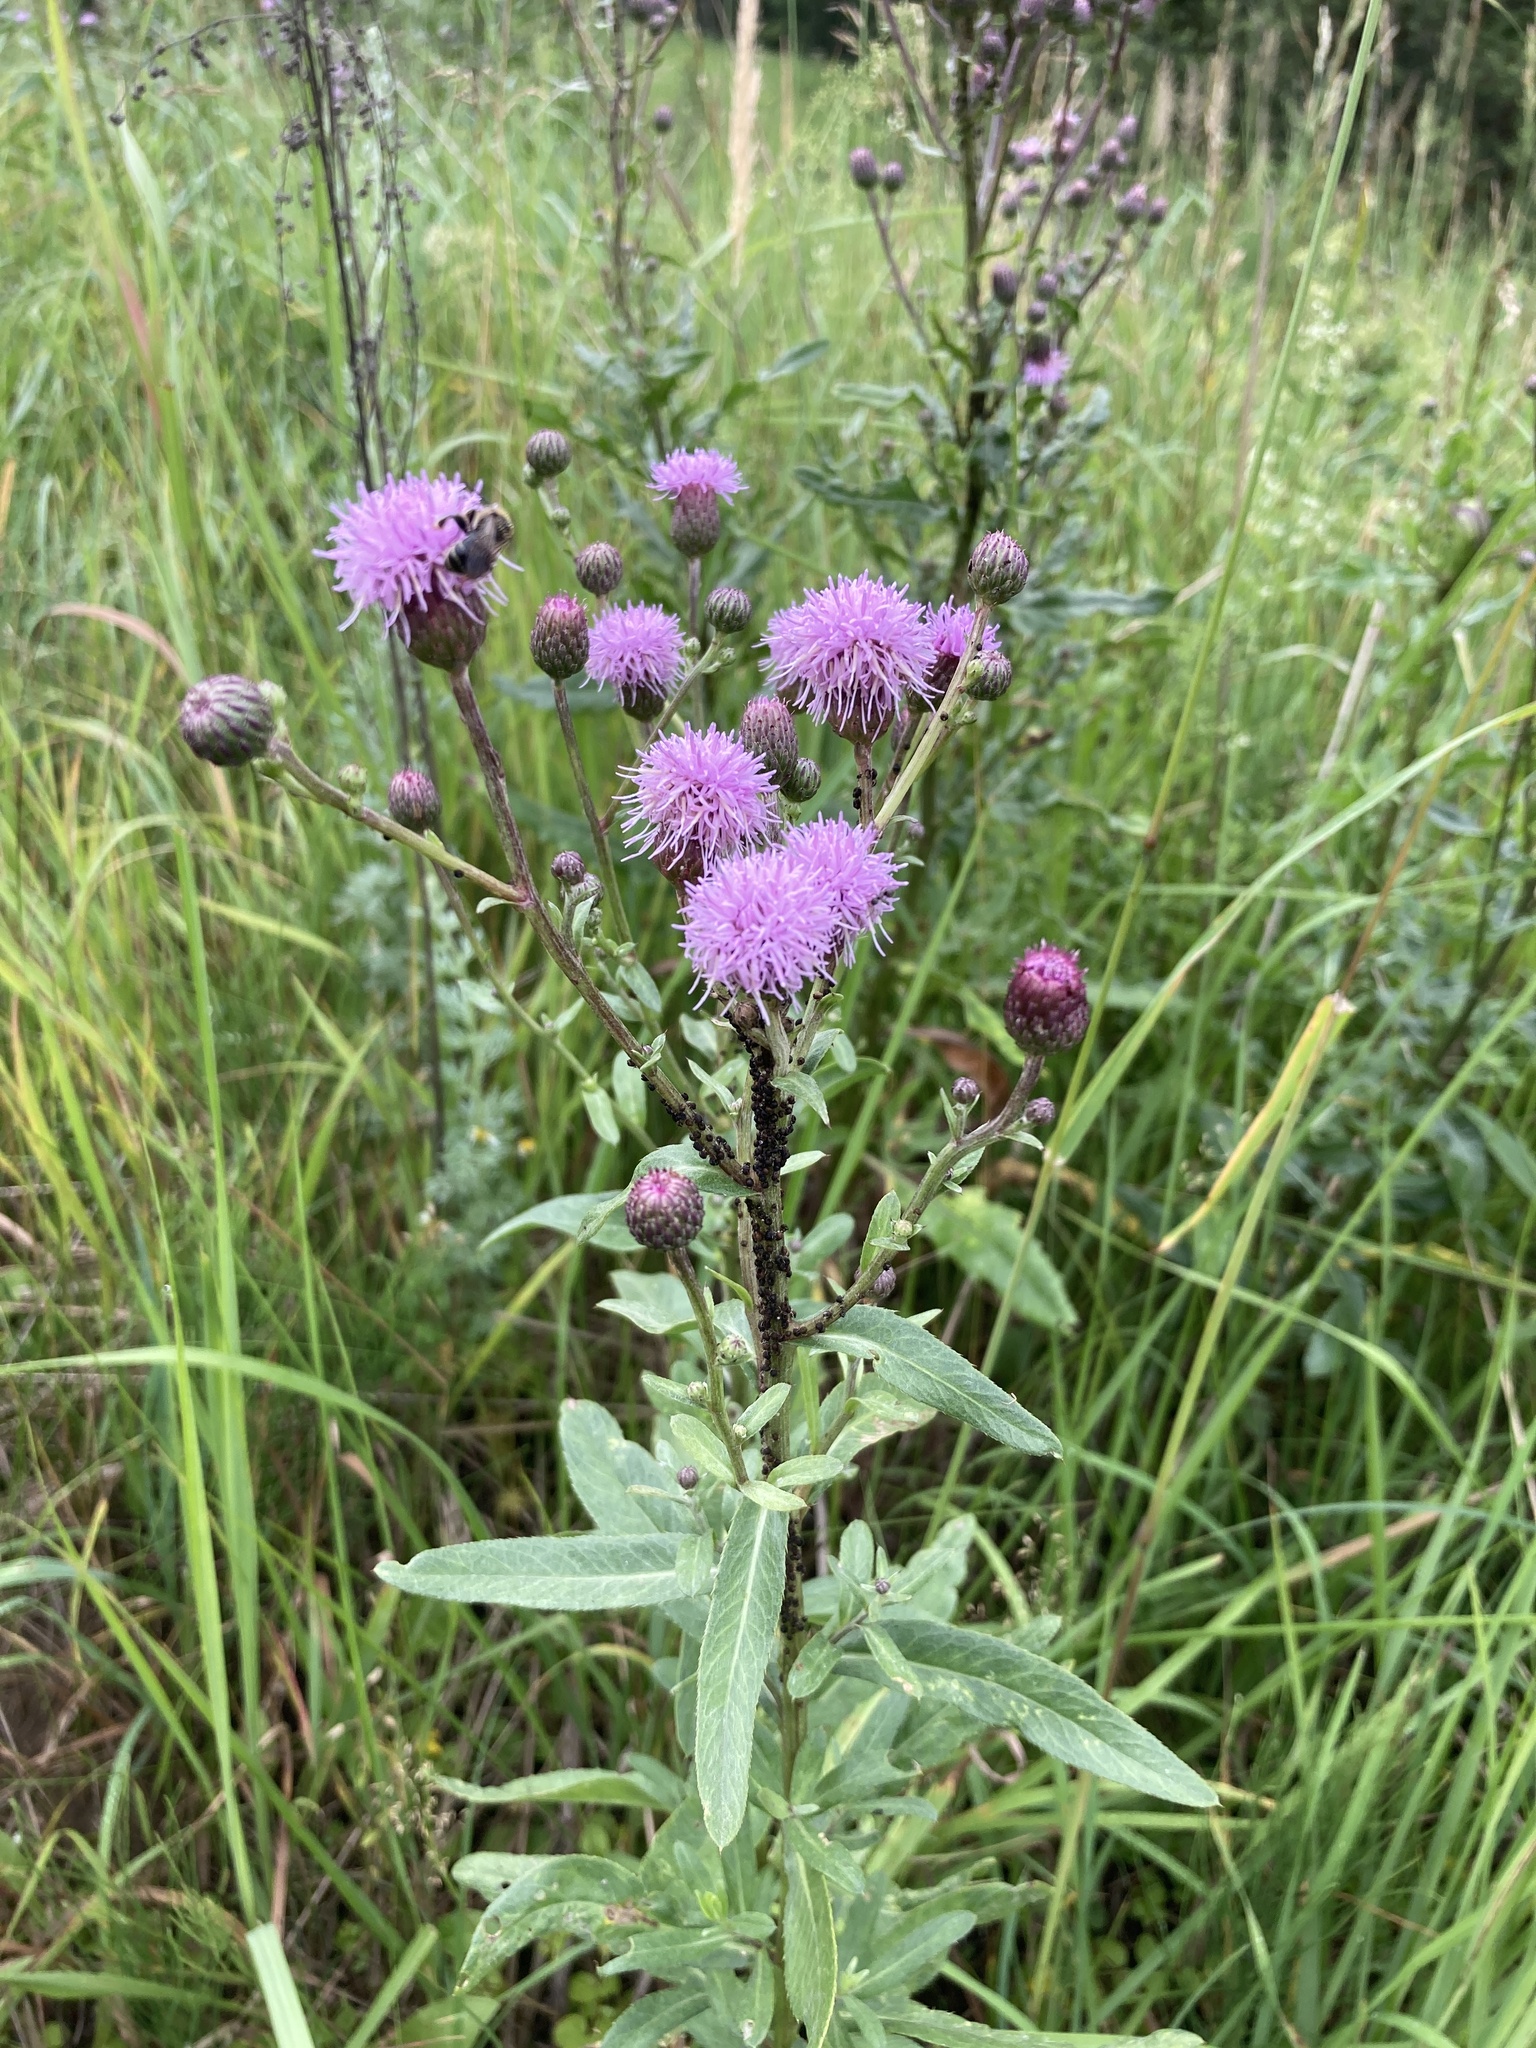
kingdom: Plantae
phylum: Tracheophyta
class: Magnoliopsida
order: Asterales
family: Asteraceae
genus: Cirsium
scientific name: Cirsium arvense
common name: Creeping thistle
